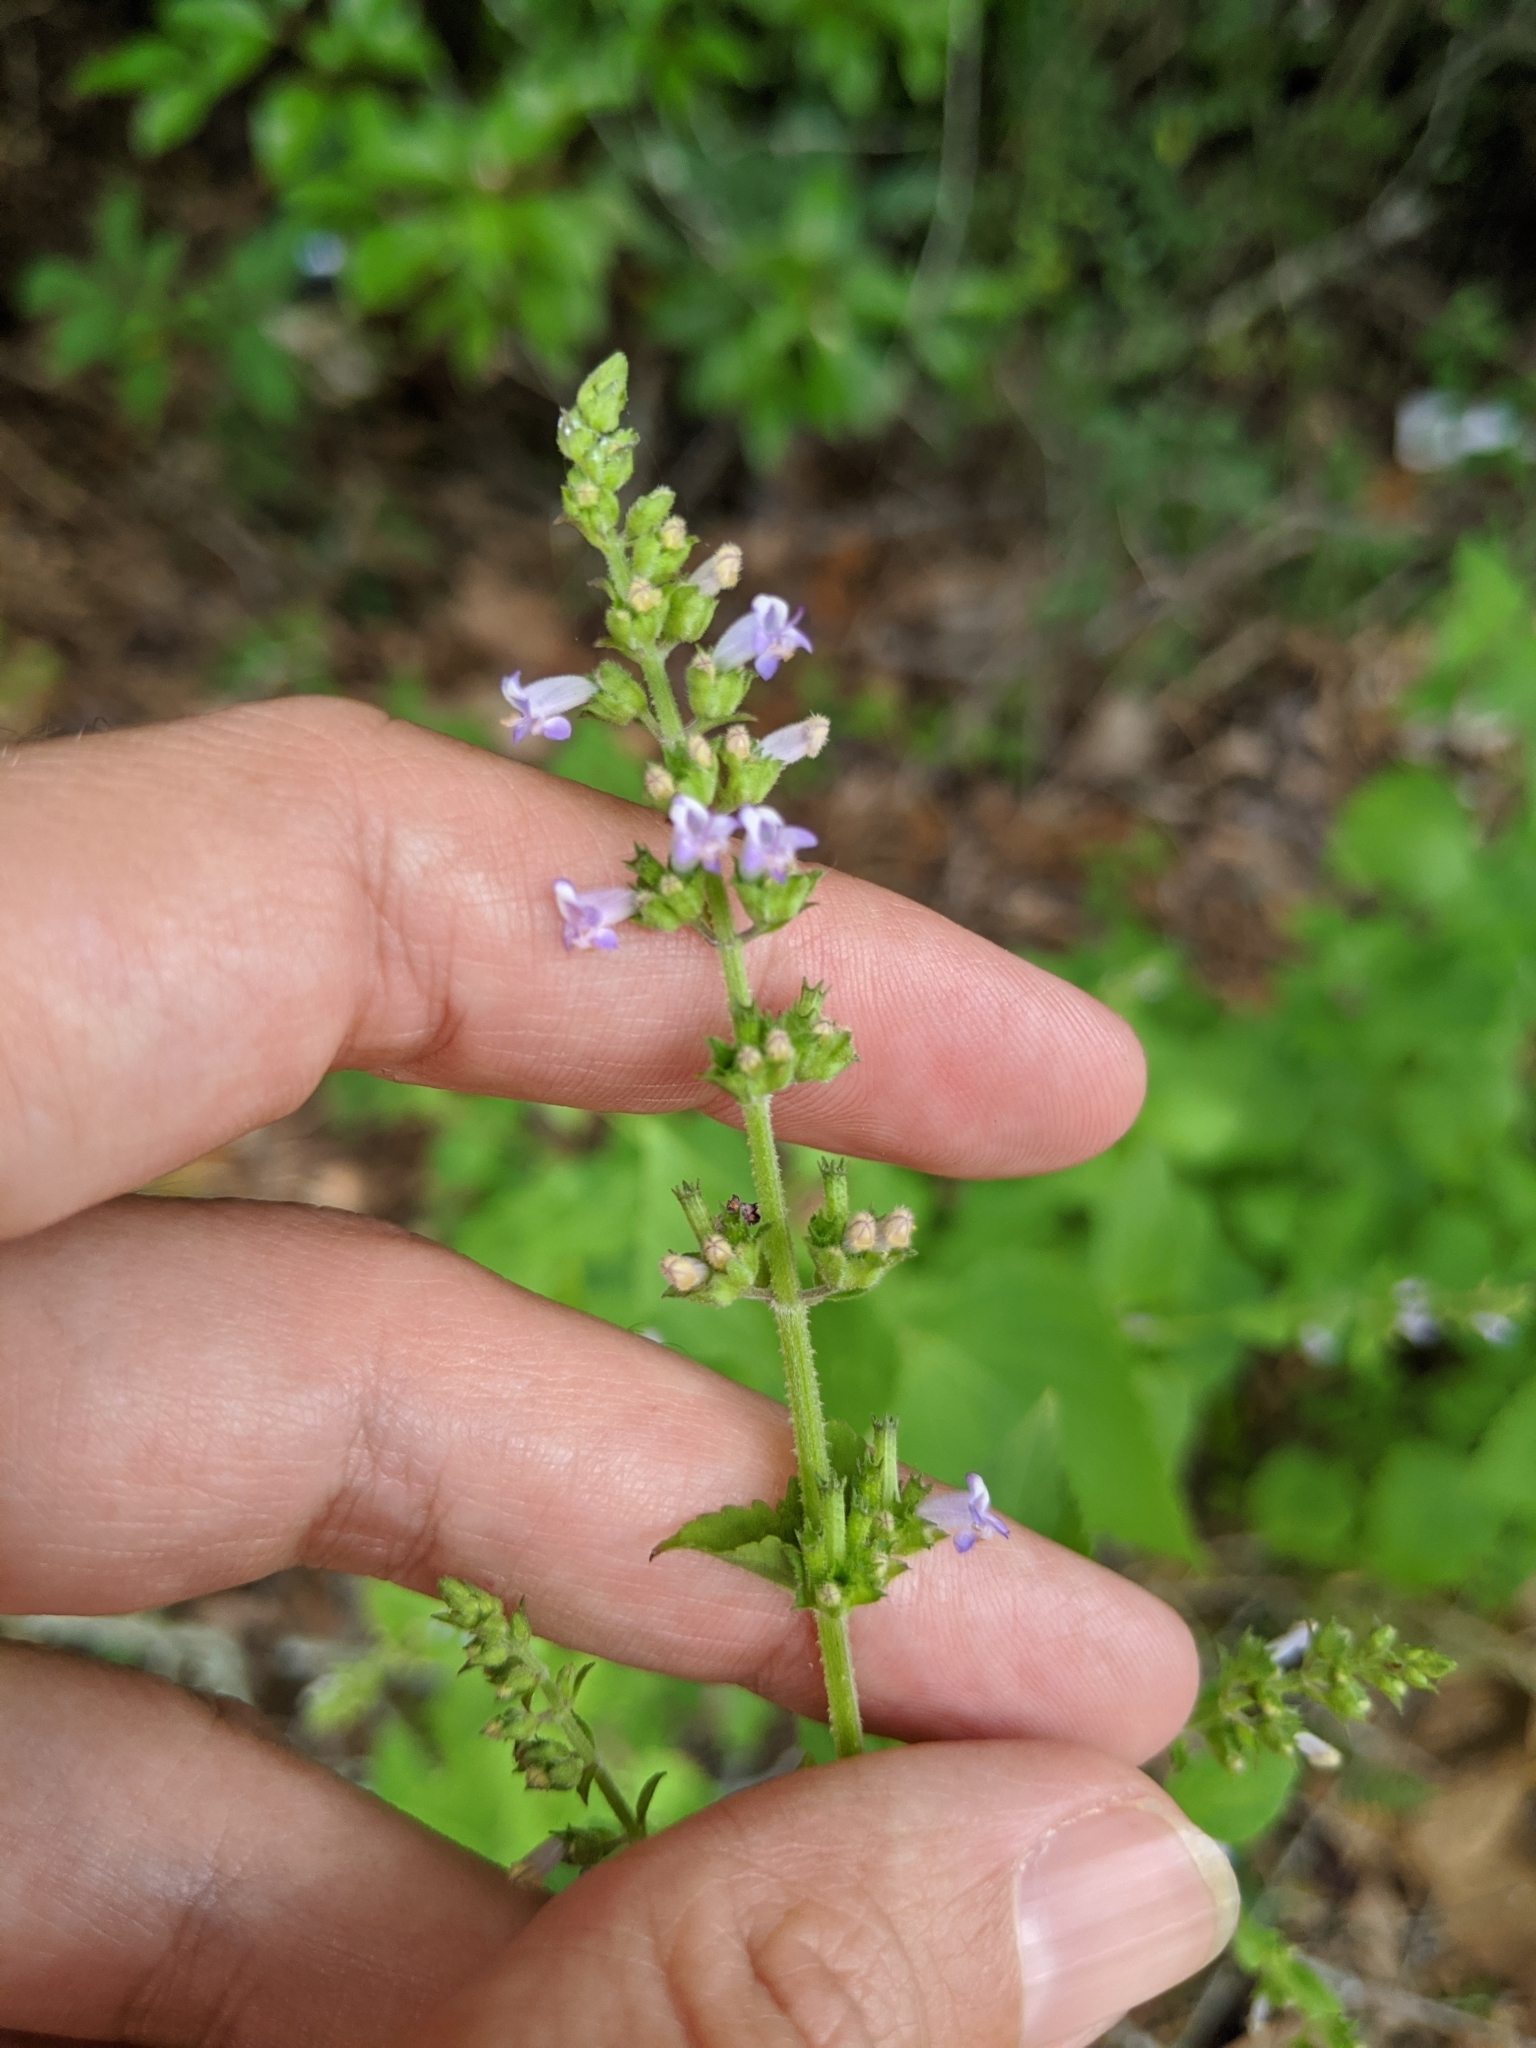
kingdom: Plantae
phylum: Tracheophyta
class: Magnoliopsida
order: Lamiales
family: Lamiaceae
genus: Cantinoa
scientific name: Cantinoa mutabilis
